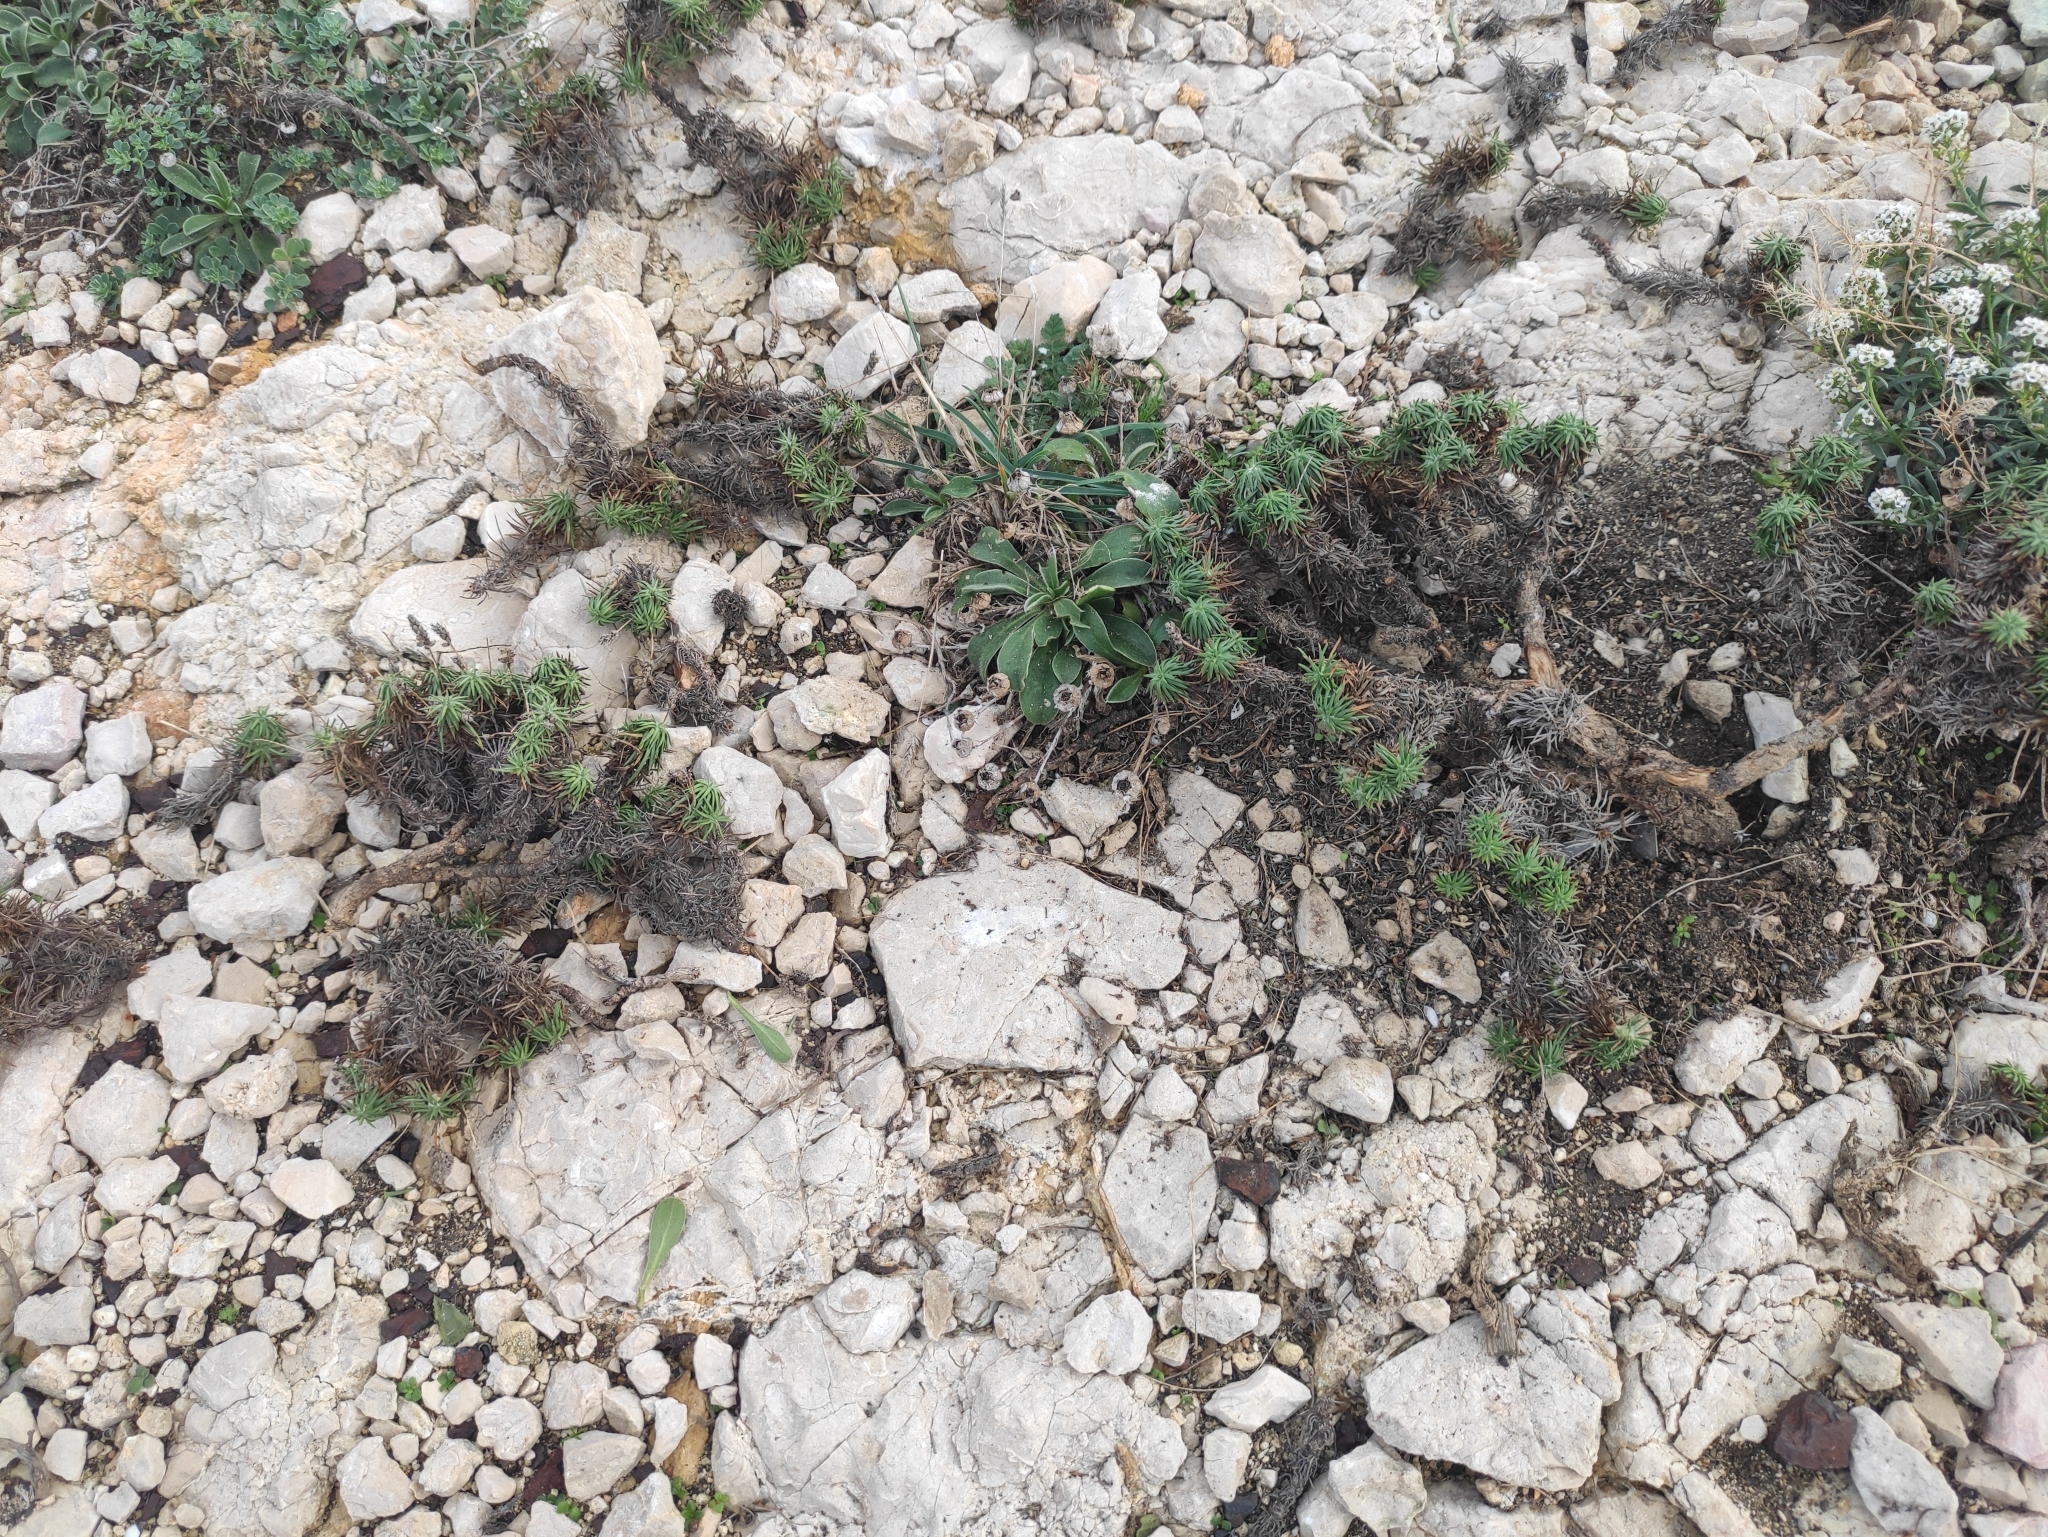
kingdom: Plantae
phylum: Tracheophyta
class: Magnoliopsida
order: Lamiales
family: Plantaginaceae
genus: Plantago
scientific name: Plantago subulata
